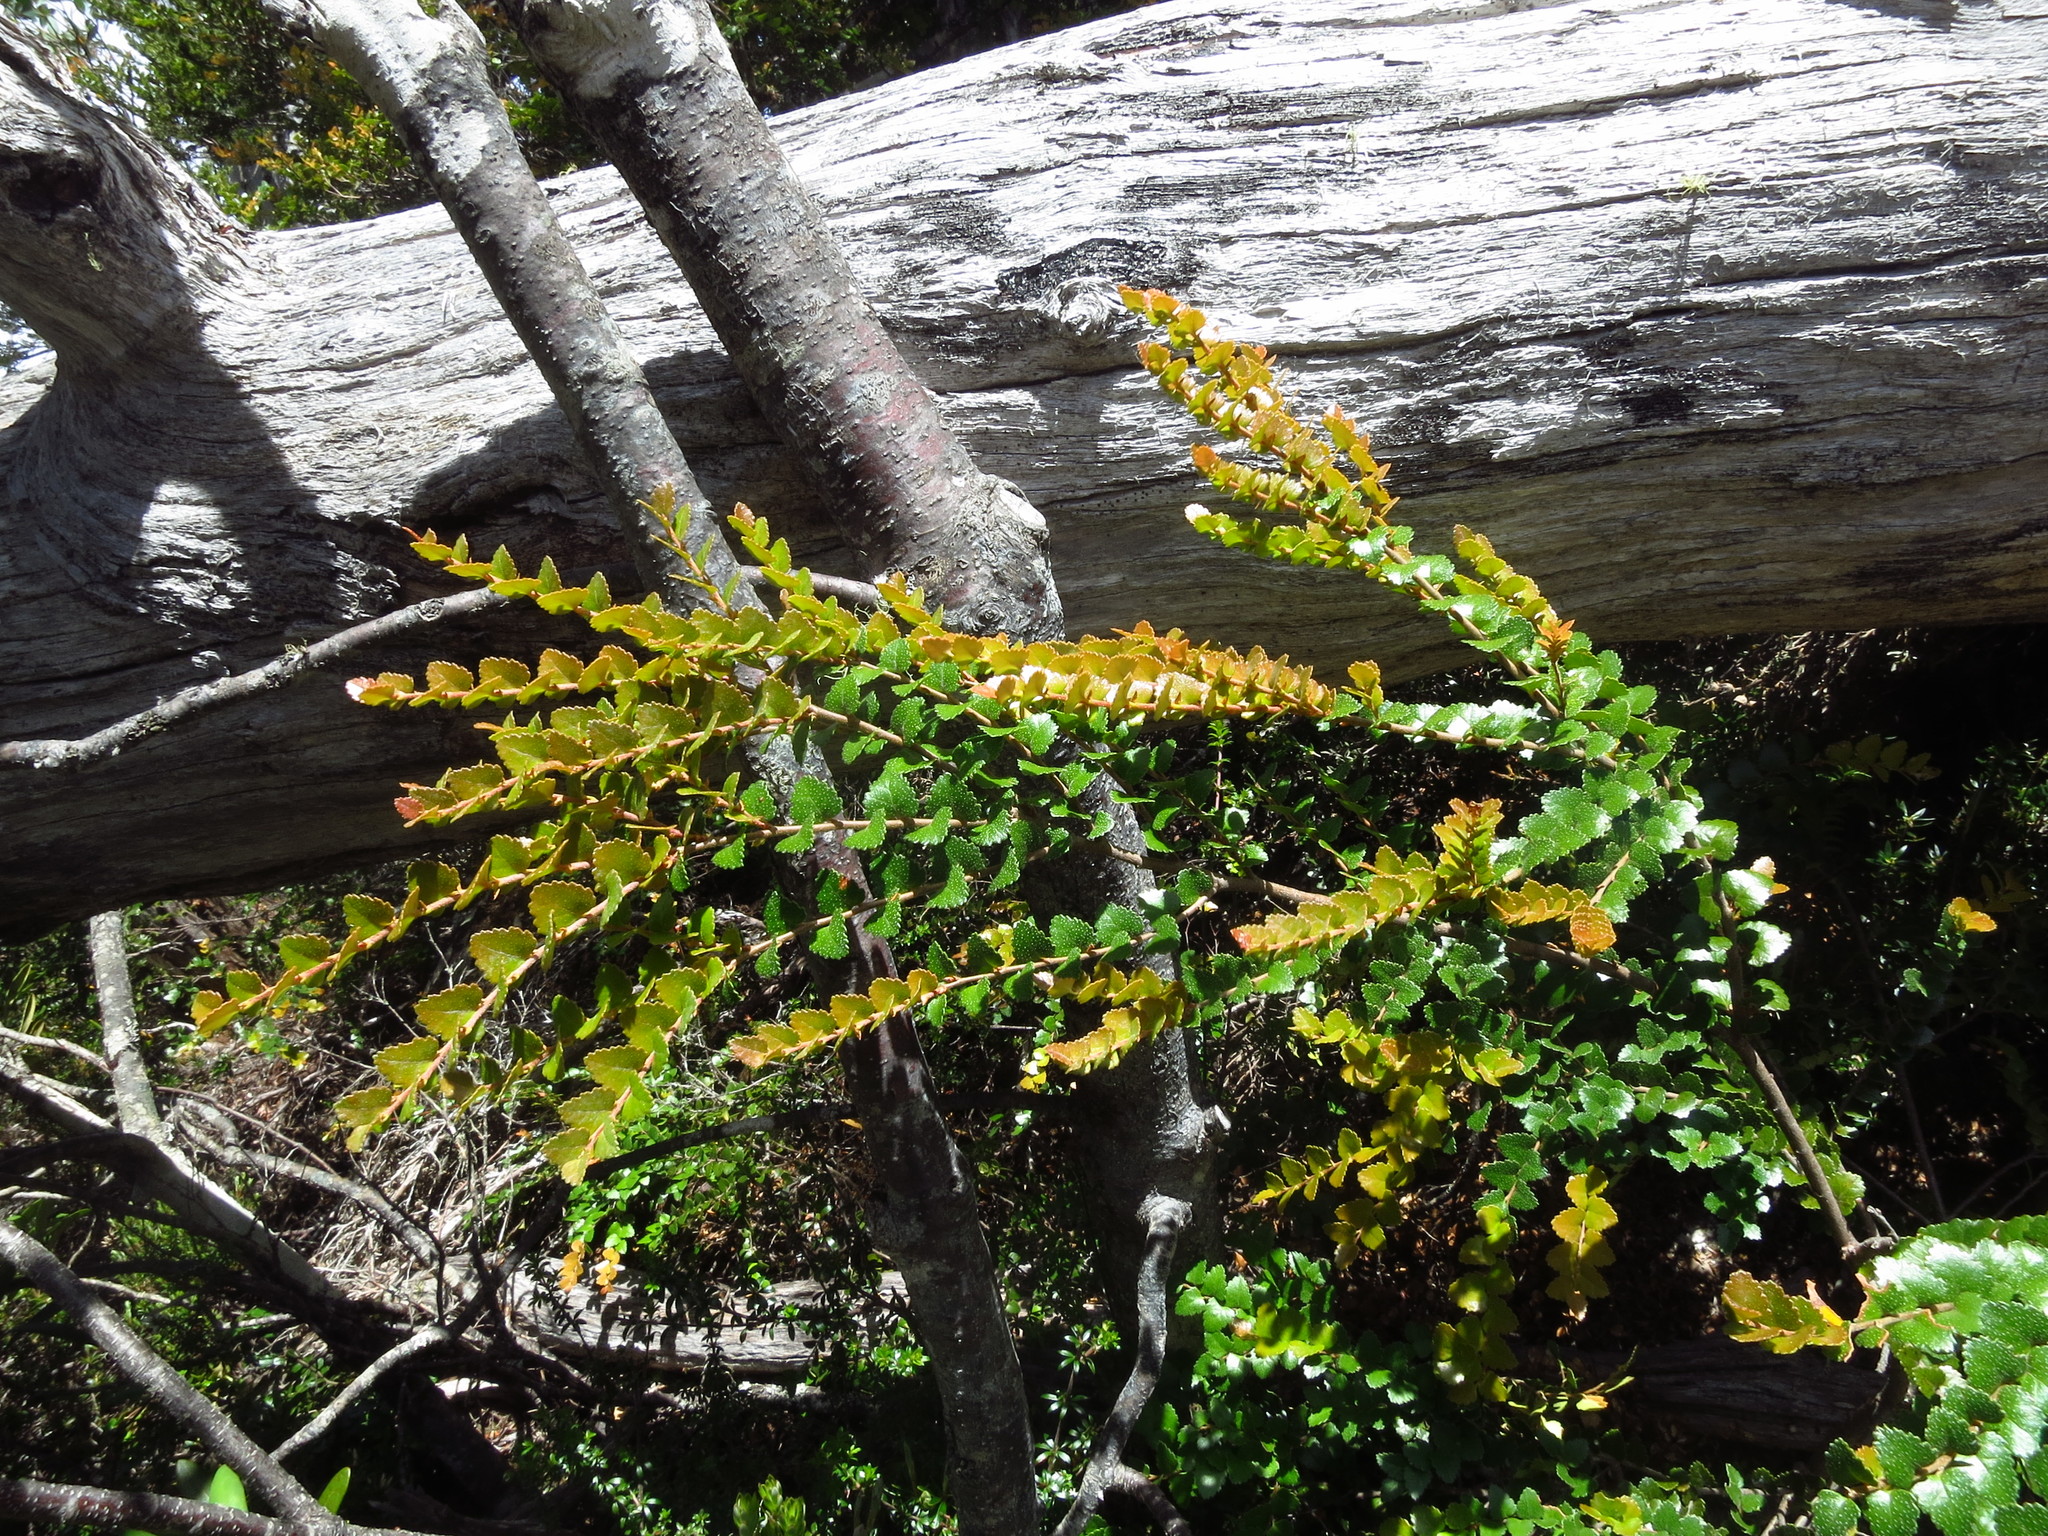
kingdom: Plantae
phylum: Tracheophyta
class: Magnoliopsida
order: Fagales
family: Nothofagaceae
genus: Nothofagus
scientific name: Nothofagus cunninghamii
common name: Myrtle beech
